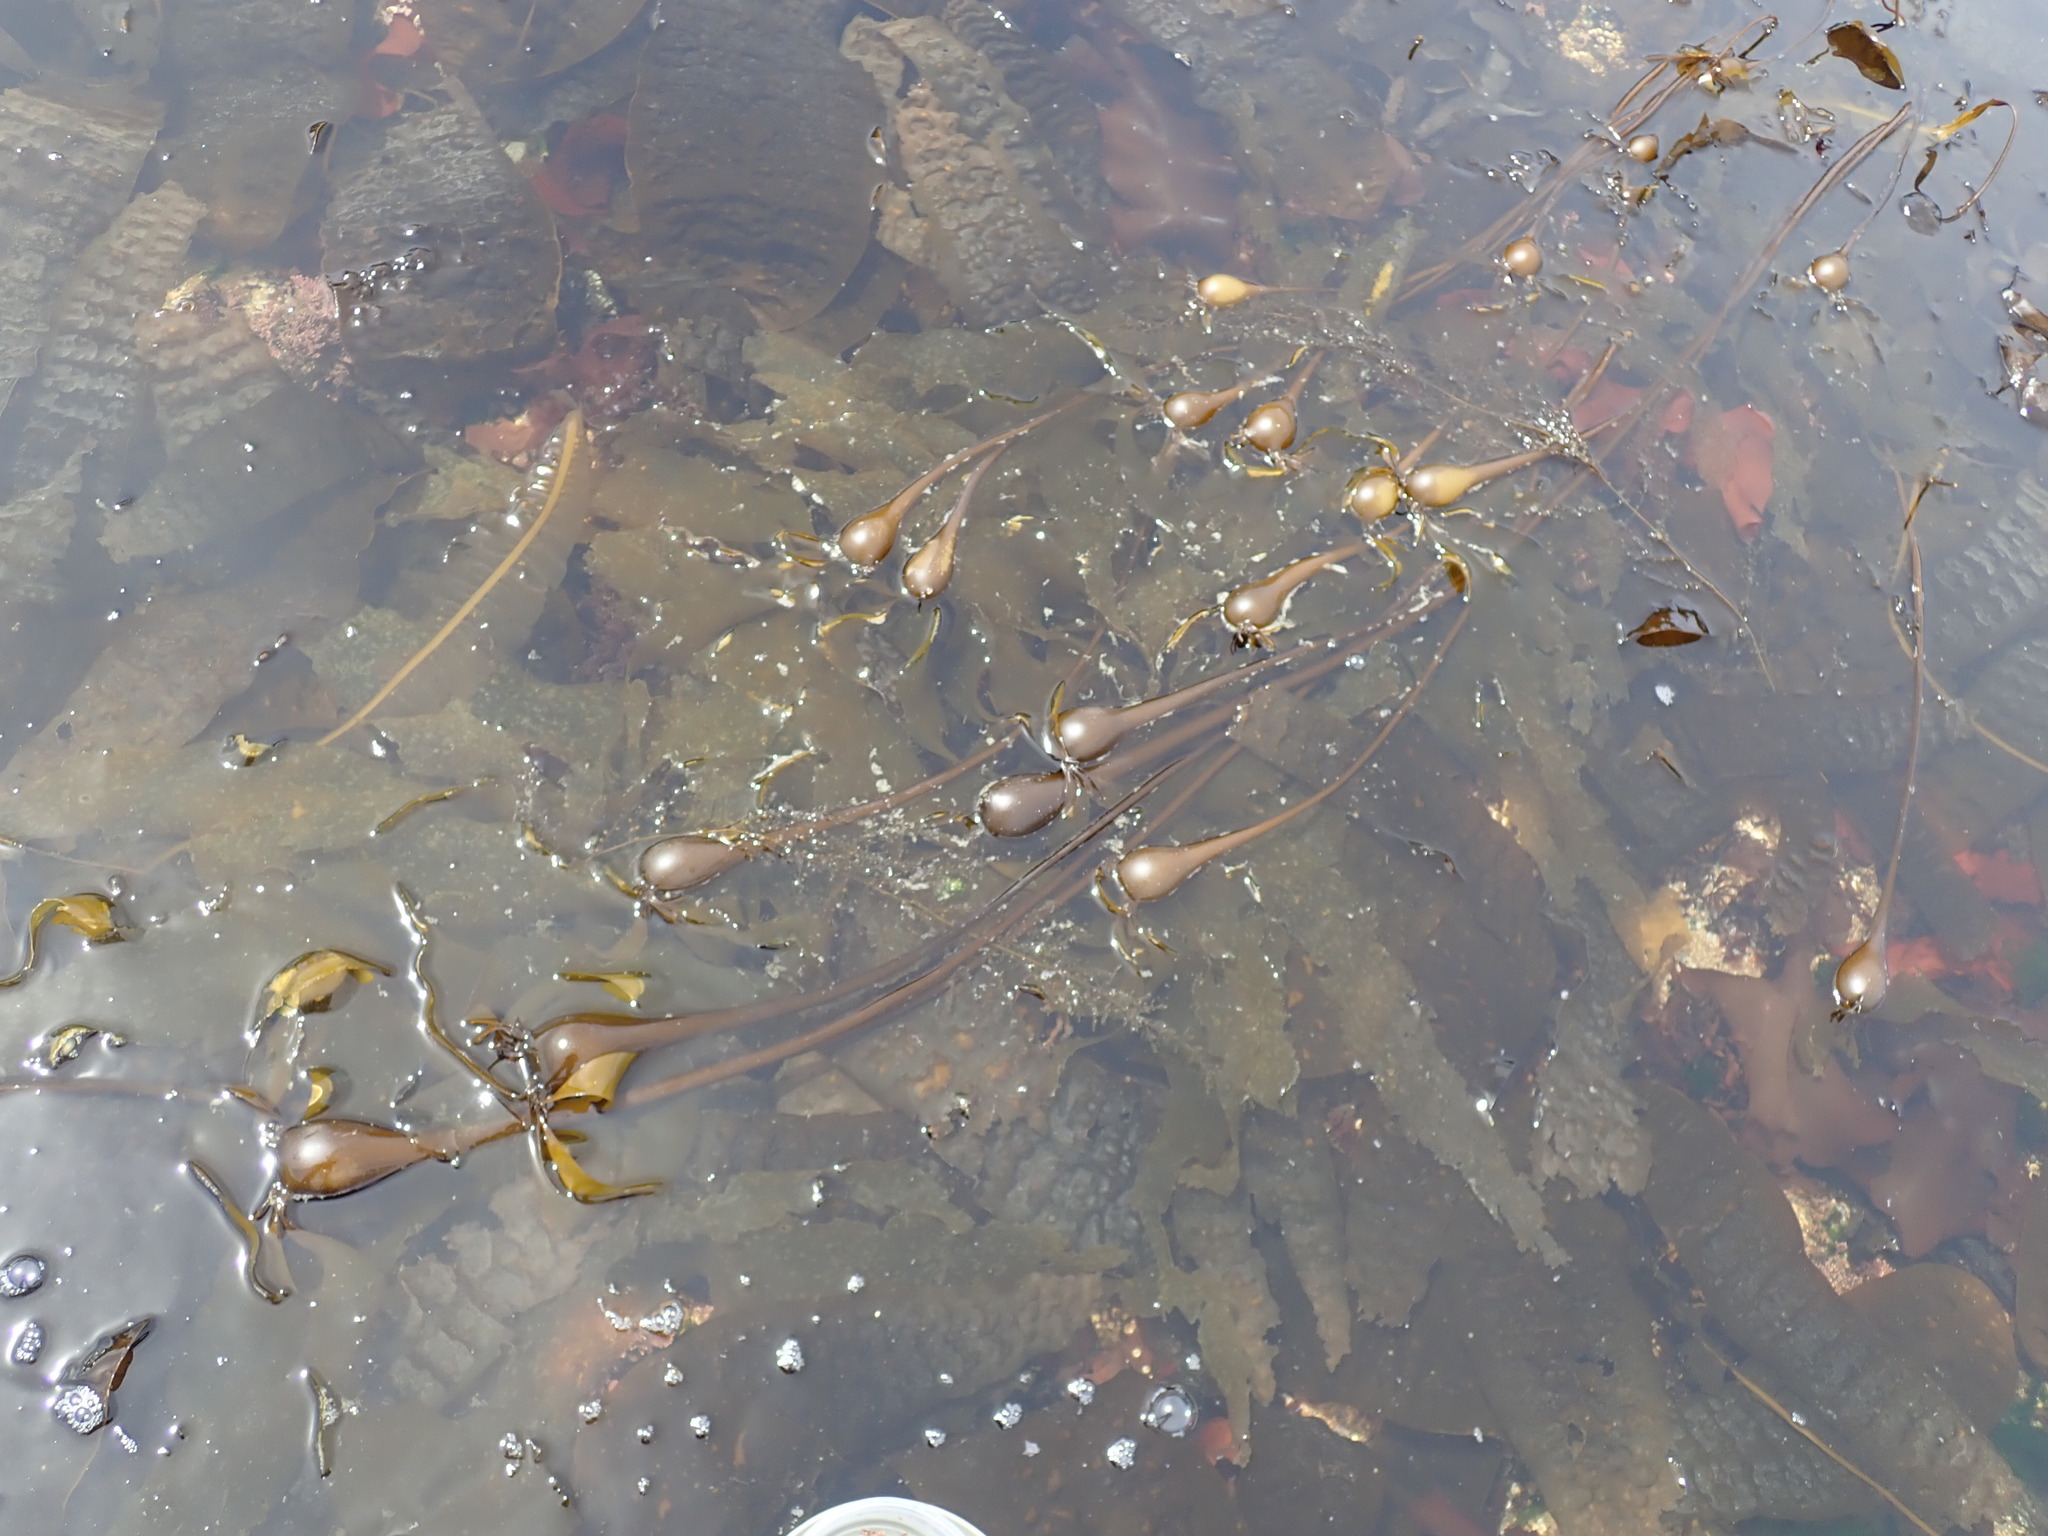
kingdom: Chromista
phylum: Ochrophyta
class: Phaeophyceae
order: Laminariales
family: Laminariaceae
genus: Nereocystis
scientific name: Nereocystis luetkeana
